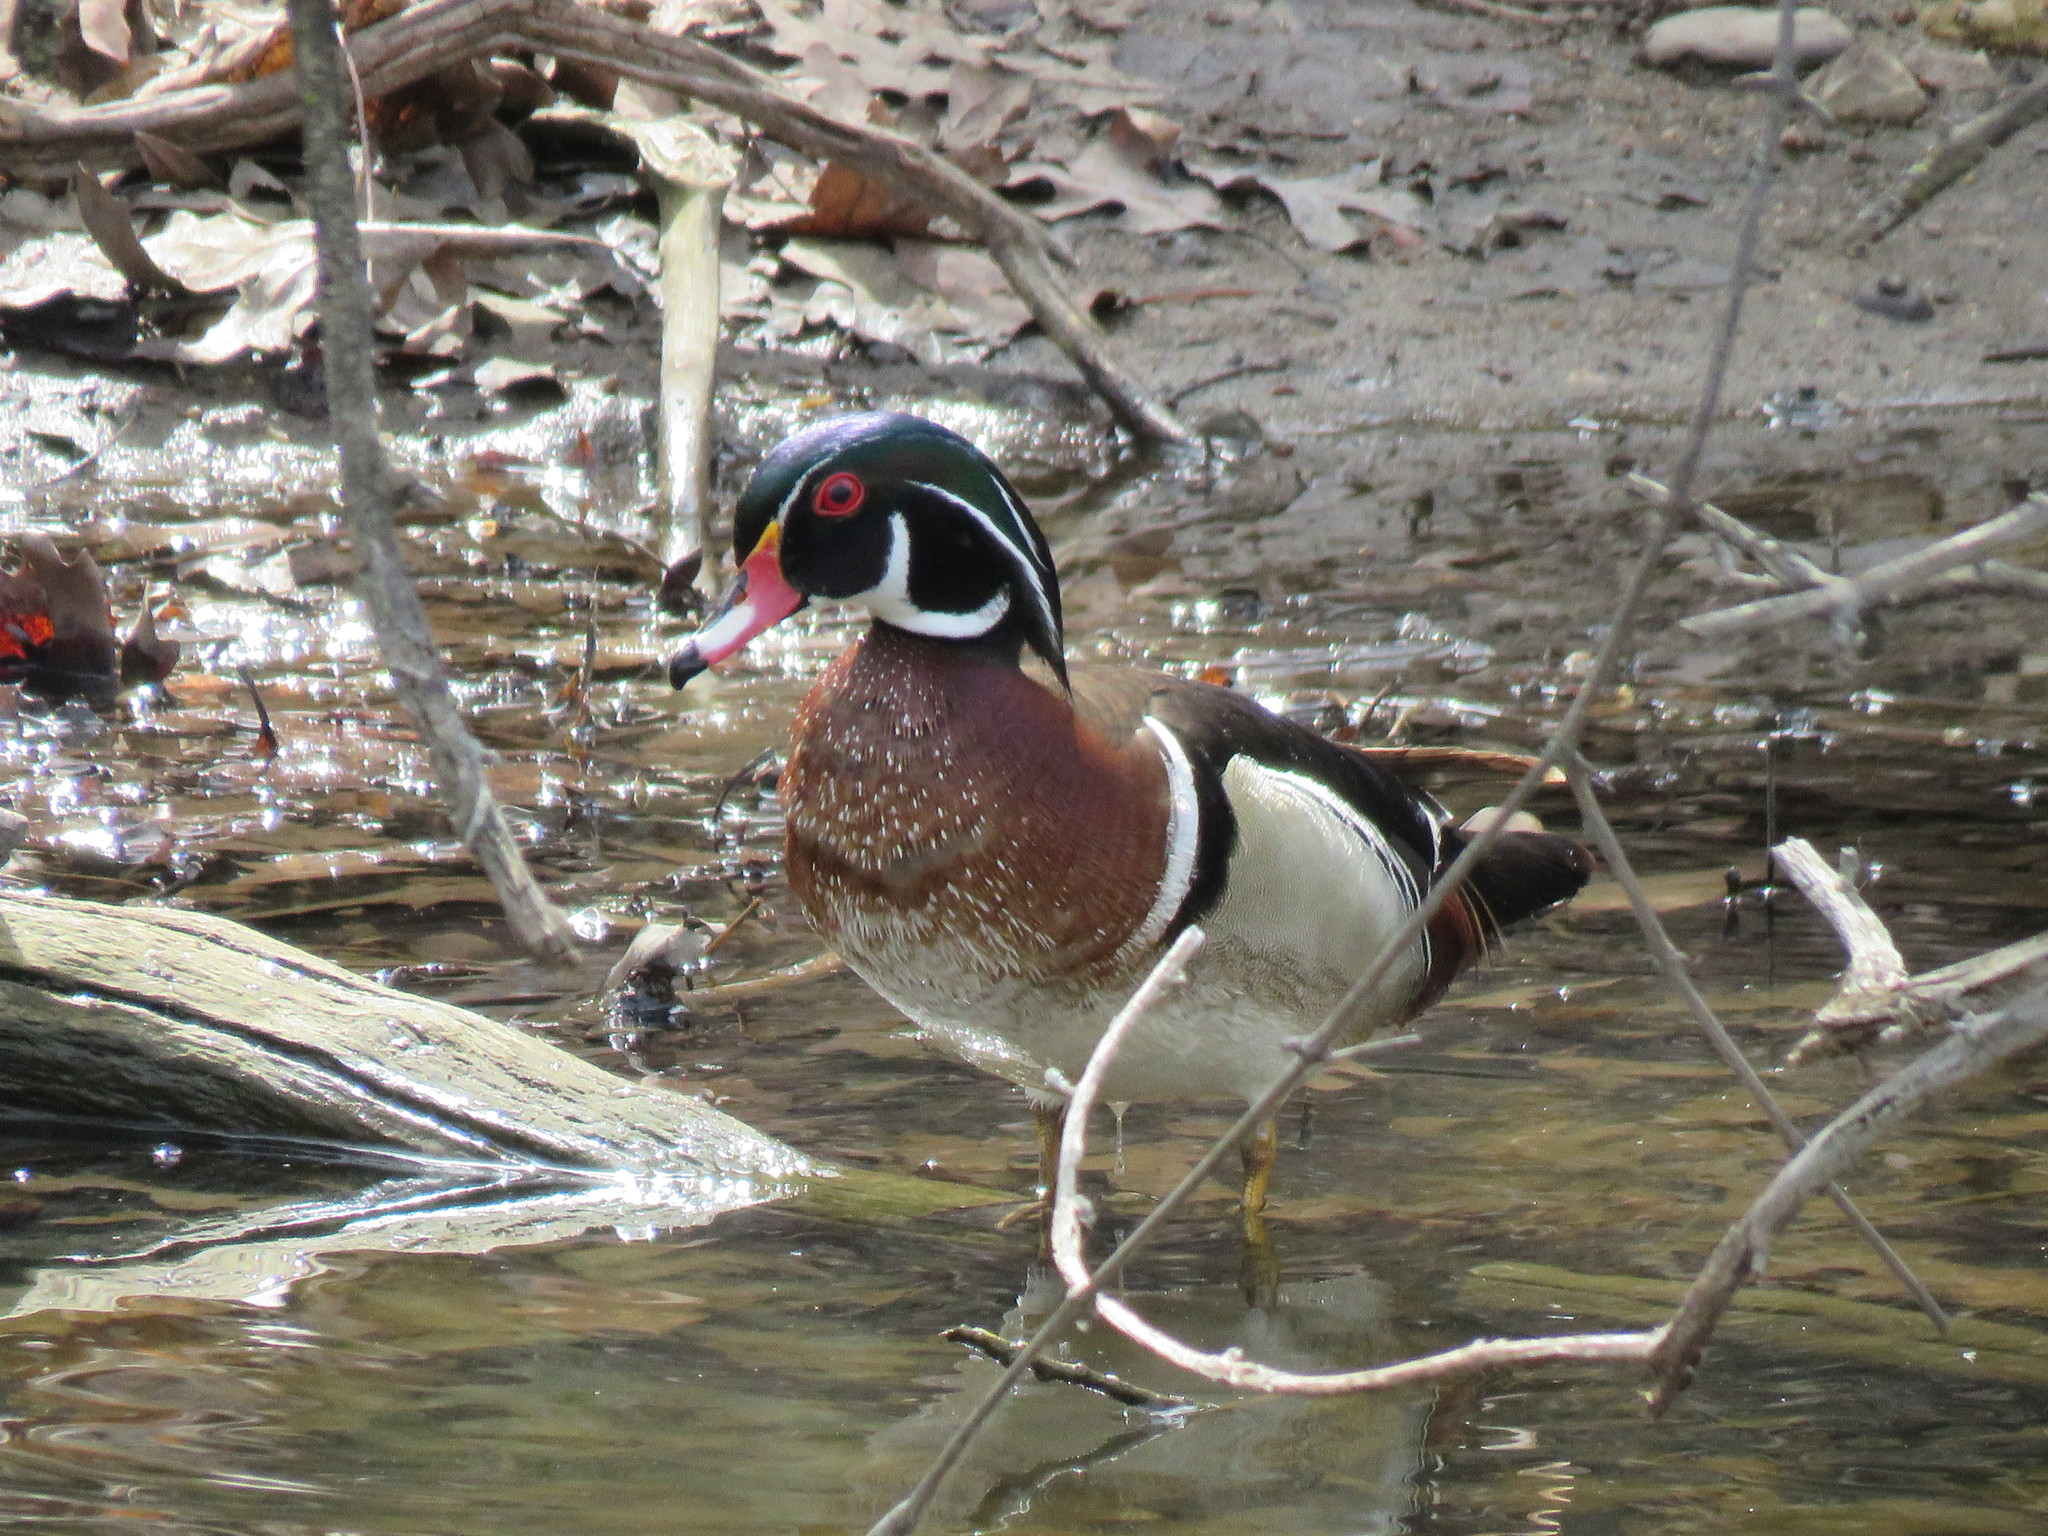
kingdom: Animalia
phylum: Chordata
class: Aves
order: Anseriformes
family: Anatidae
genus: Aix
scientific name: Aix sponsa
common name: Wood duck
